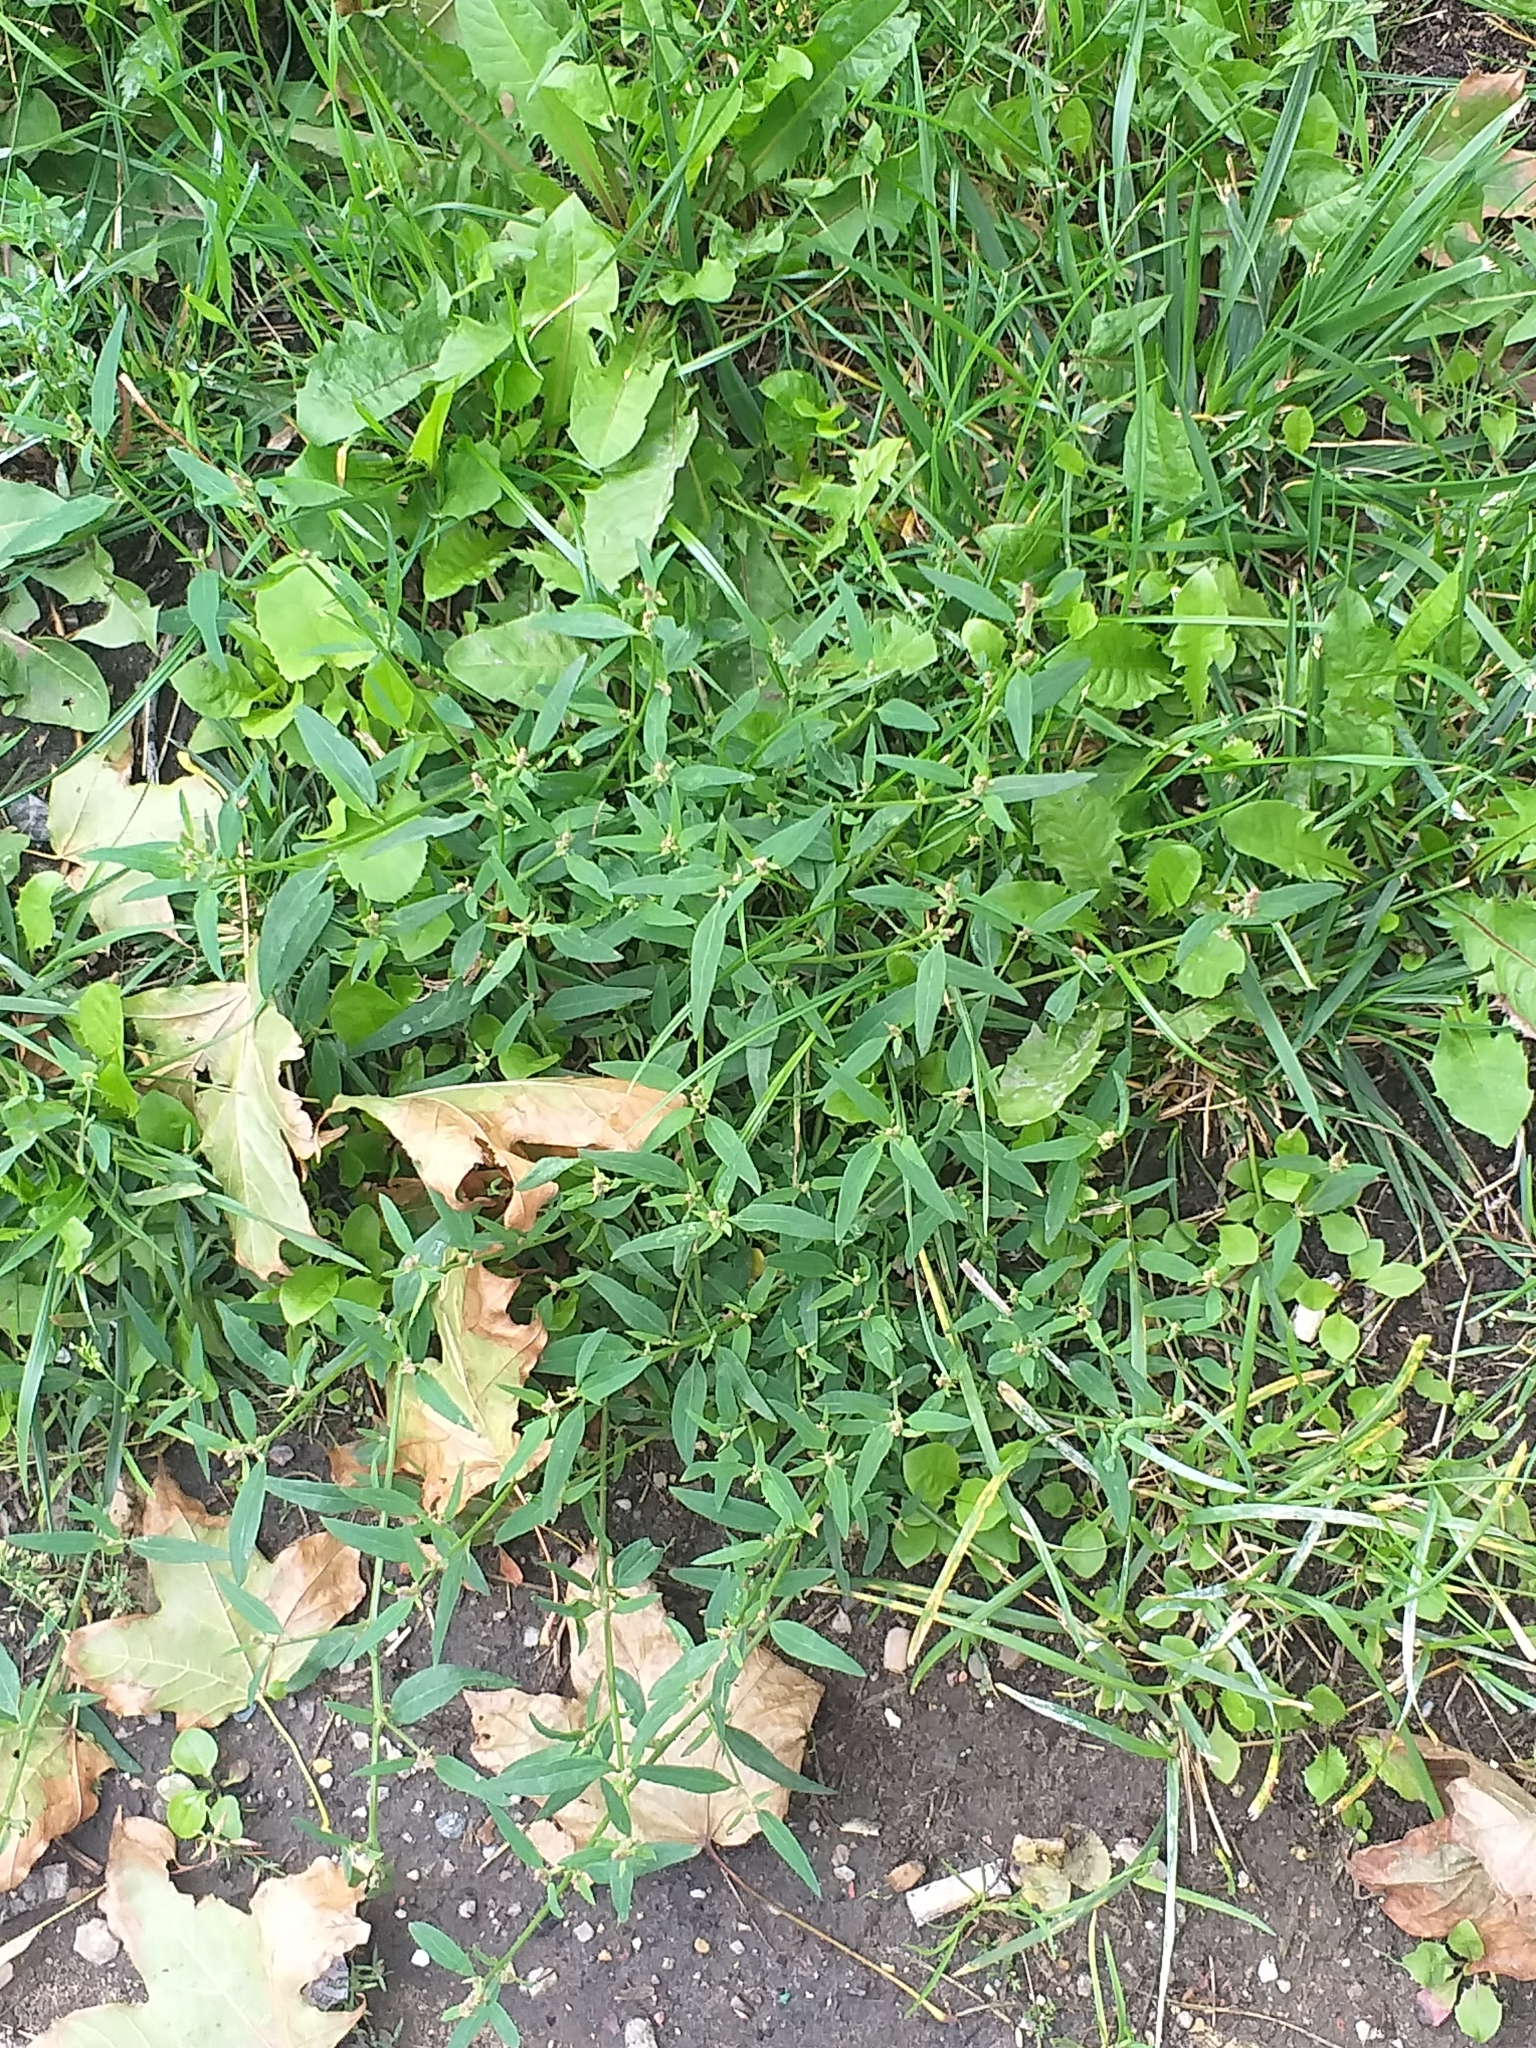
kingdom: Plantae
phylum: Tracheophyta
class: Magnoliopsida
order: Caryophyllales
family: Amaranthaceae
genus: Atriplex
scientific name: Atriplex patula
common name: Common orache
